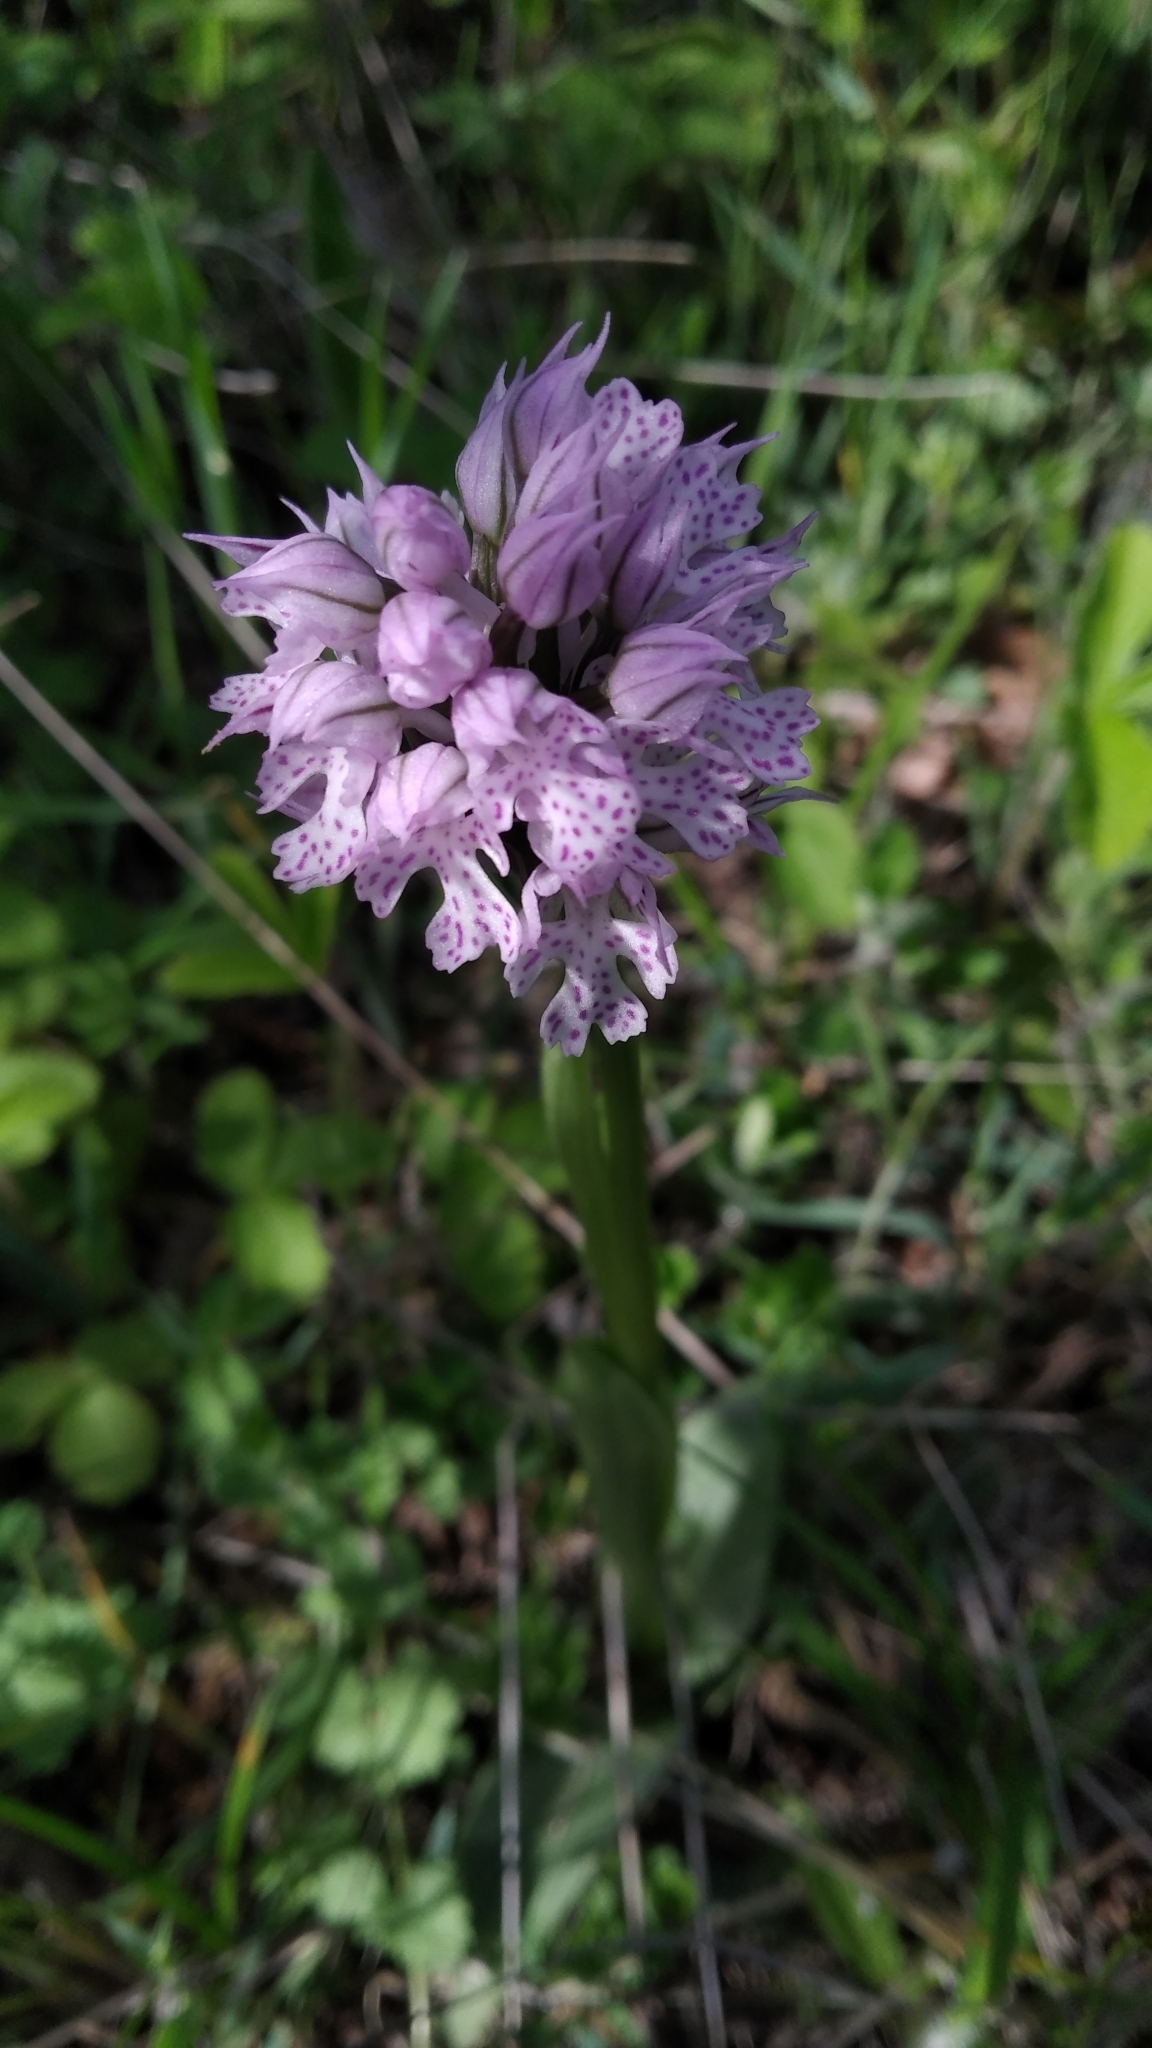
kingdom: Plantae
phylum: Tracheophyta
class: Liliopsida
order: Asparagales
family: Orchidaceae
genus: Neotinea
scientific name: Neotinea tridentata
